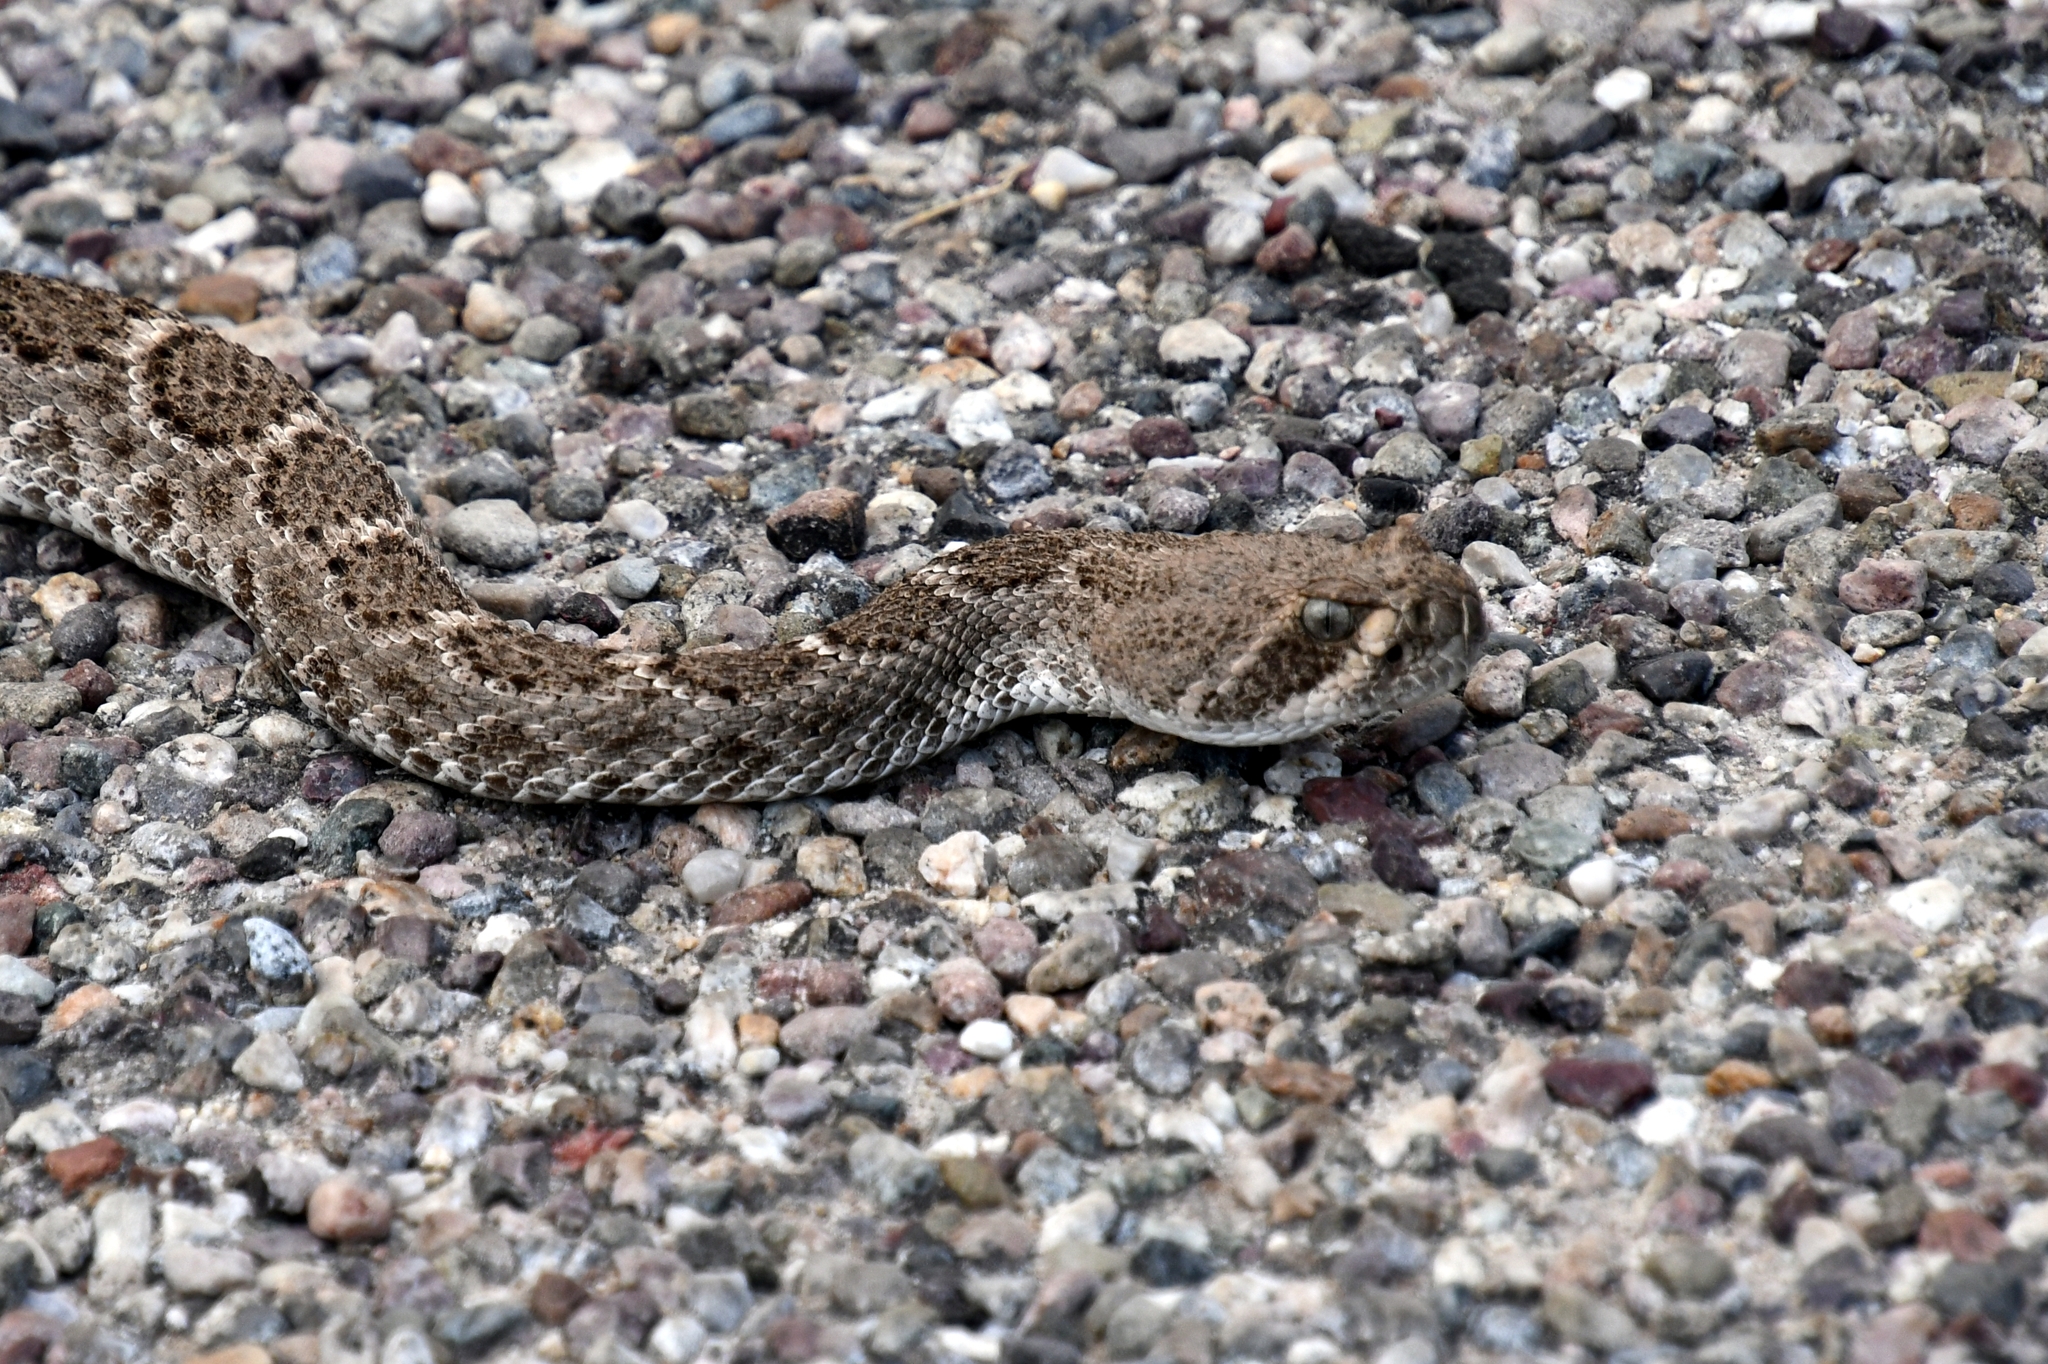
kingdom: Animalia
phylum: Chordata
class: Squamata
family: Viperidae
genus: Crotalus
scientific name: Crotalus atrox
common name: Western diamond-backed rattlesnake
